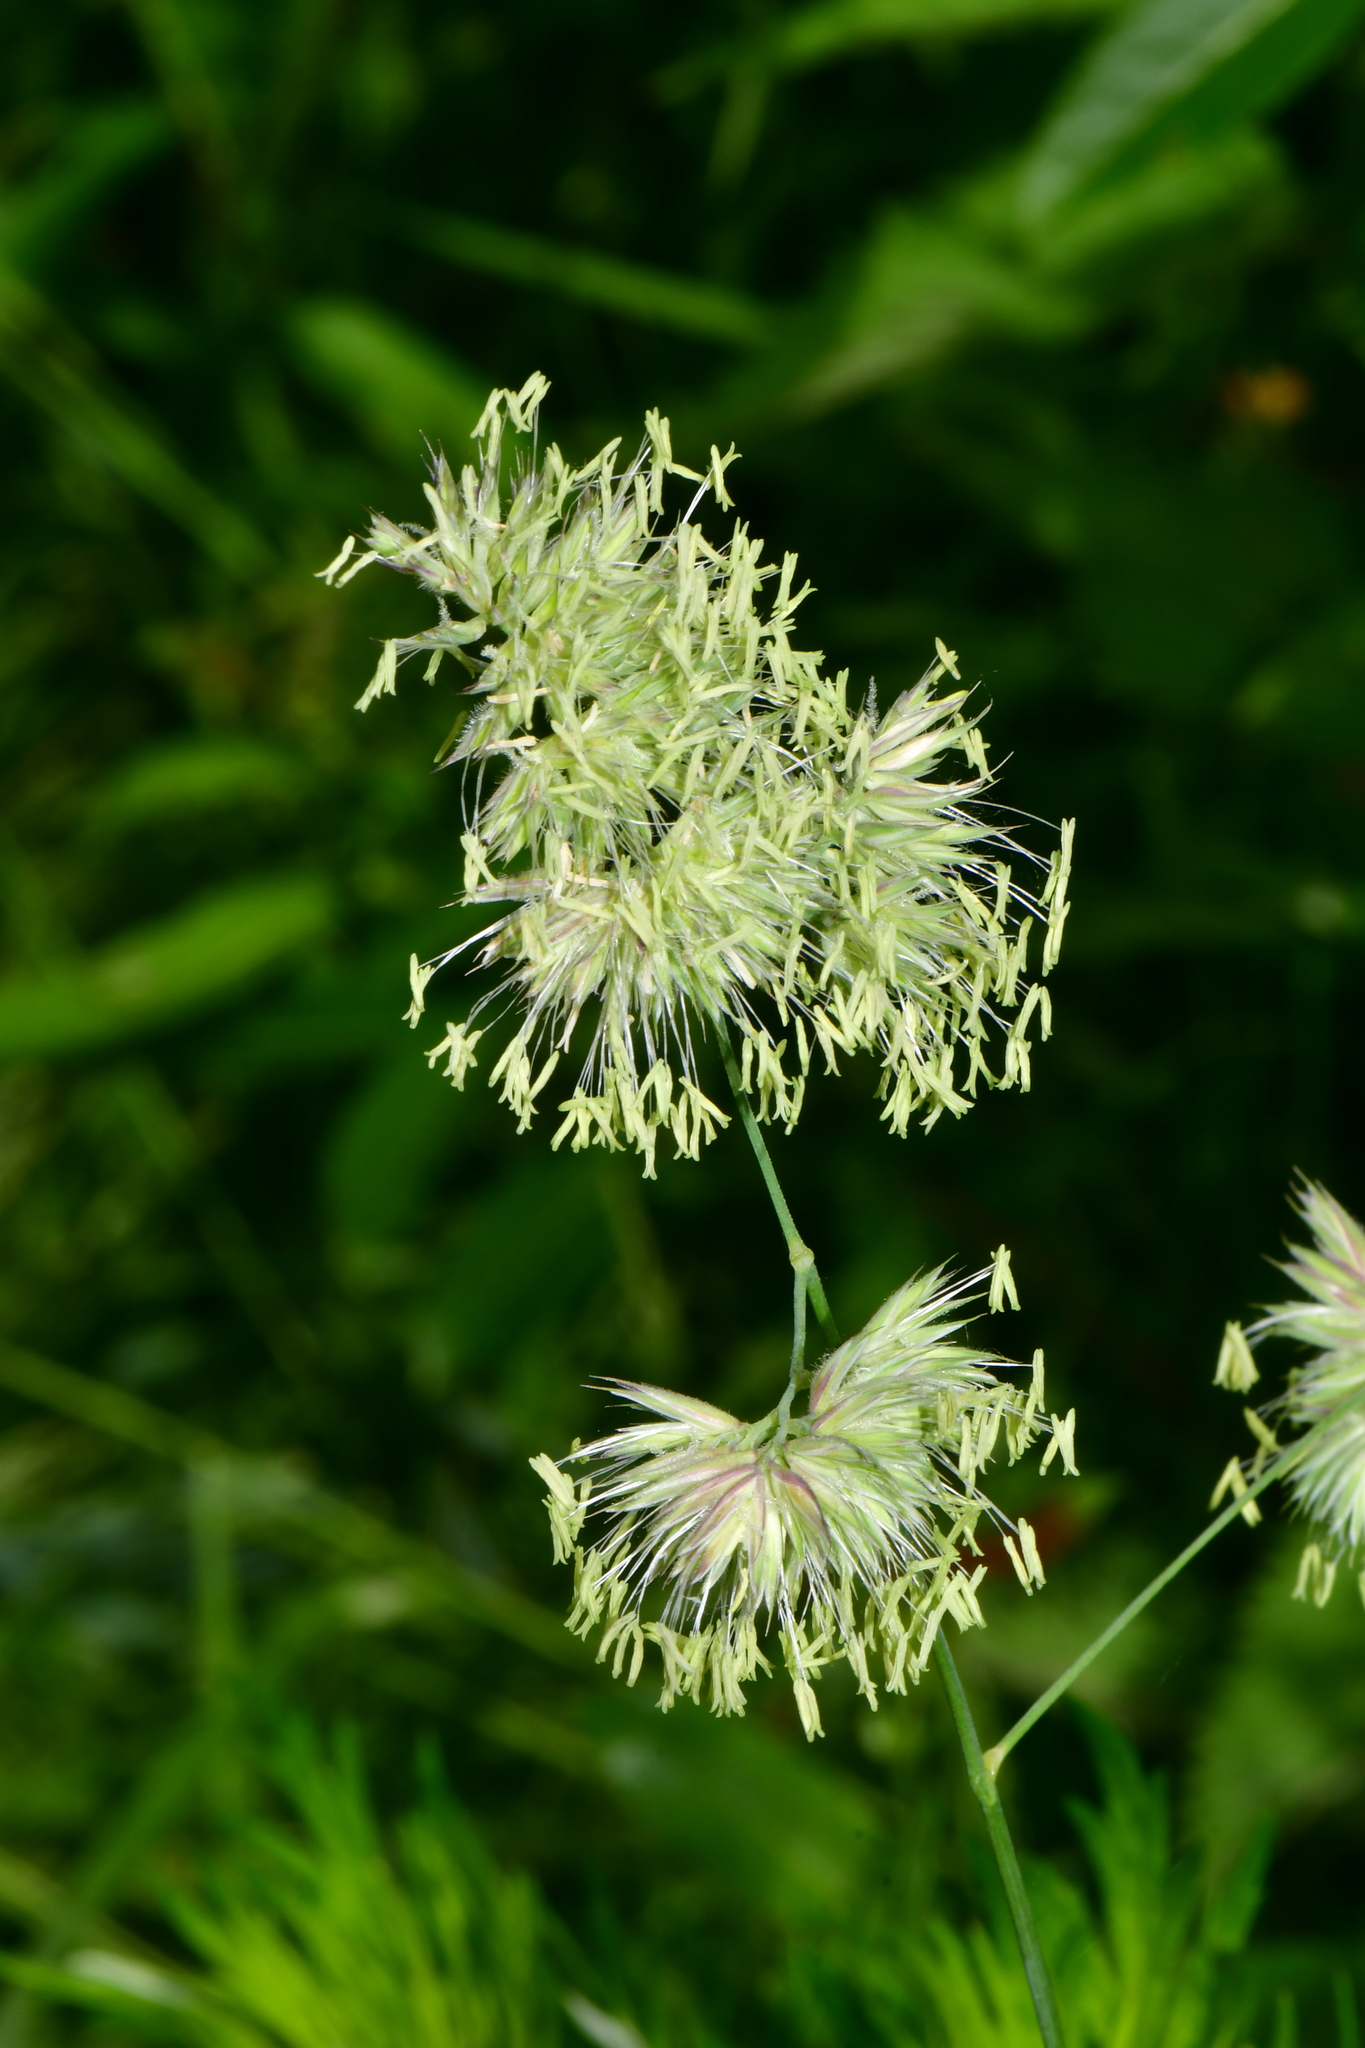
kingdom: Plantae
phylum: Tracheophyta
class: Liliopsida
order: Poales
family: Poaceae
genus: Dactylis
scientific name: Dactylis glomerata
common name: Orchardgrass
